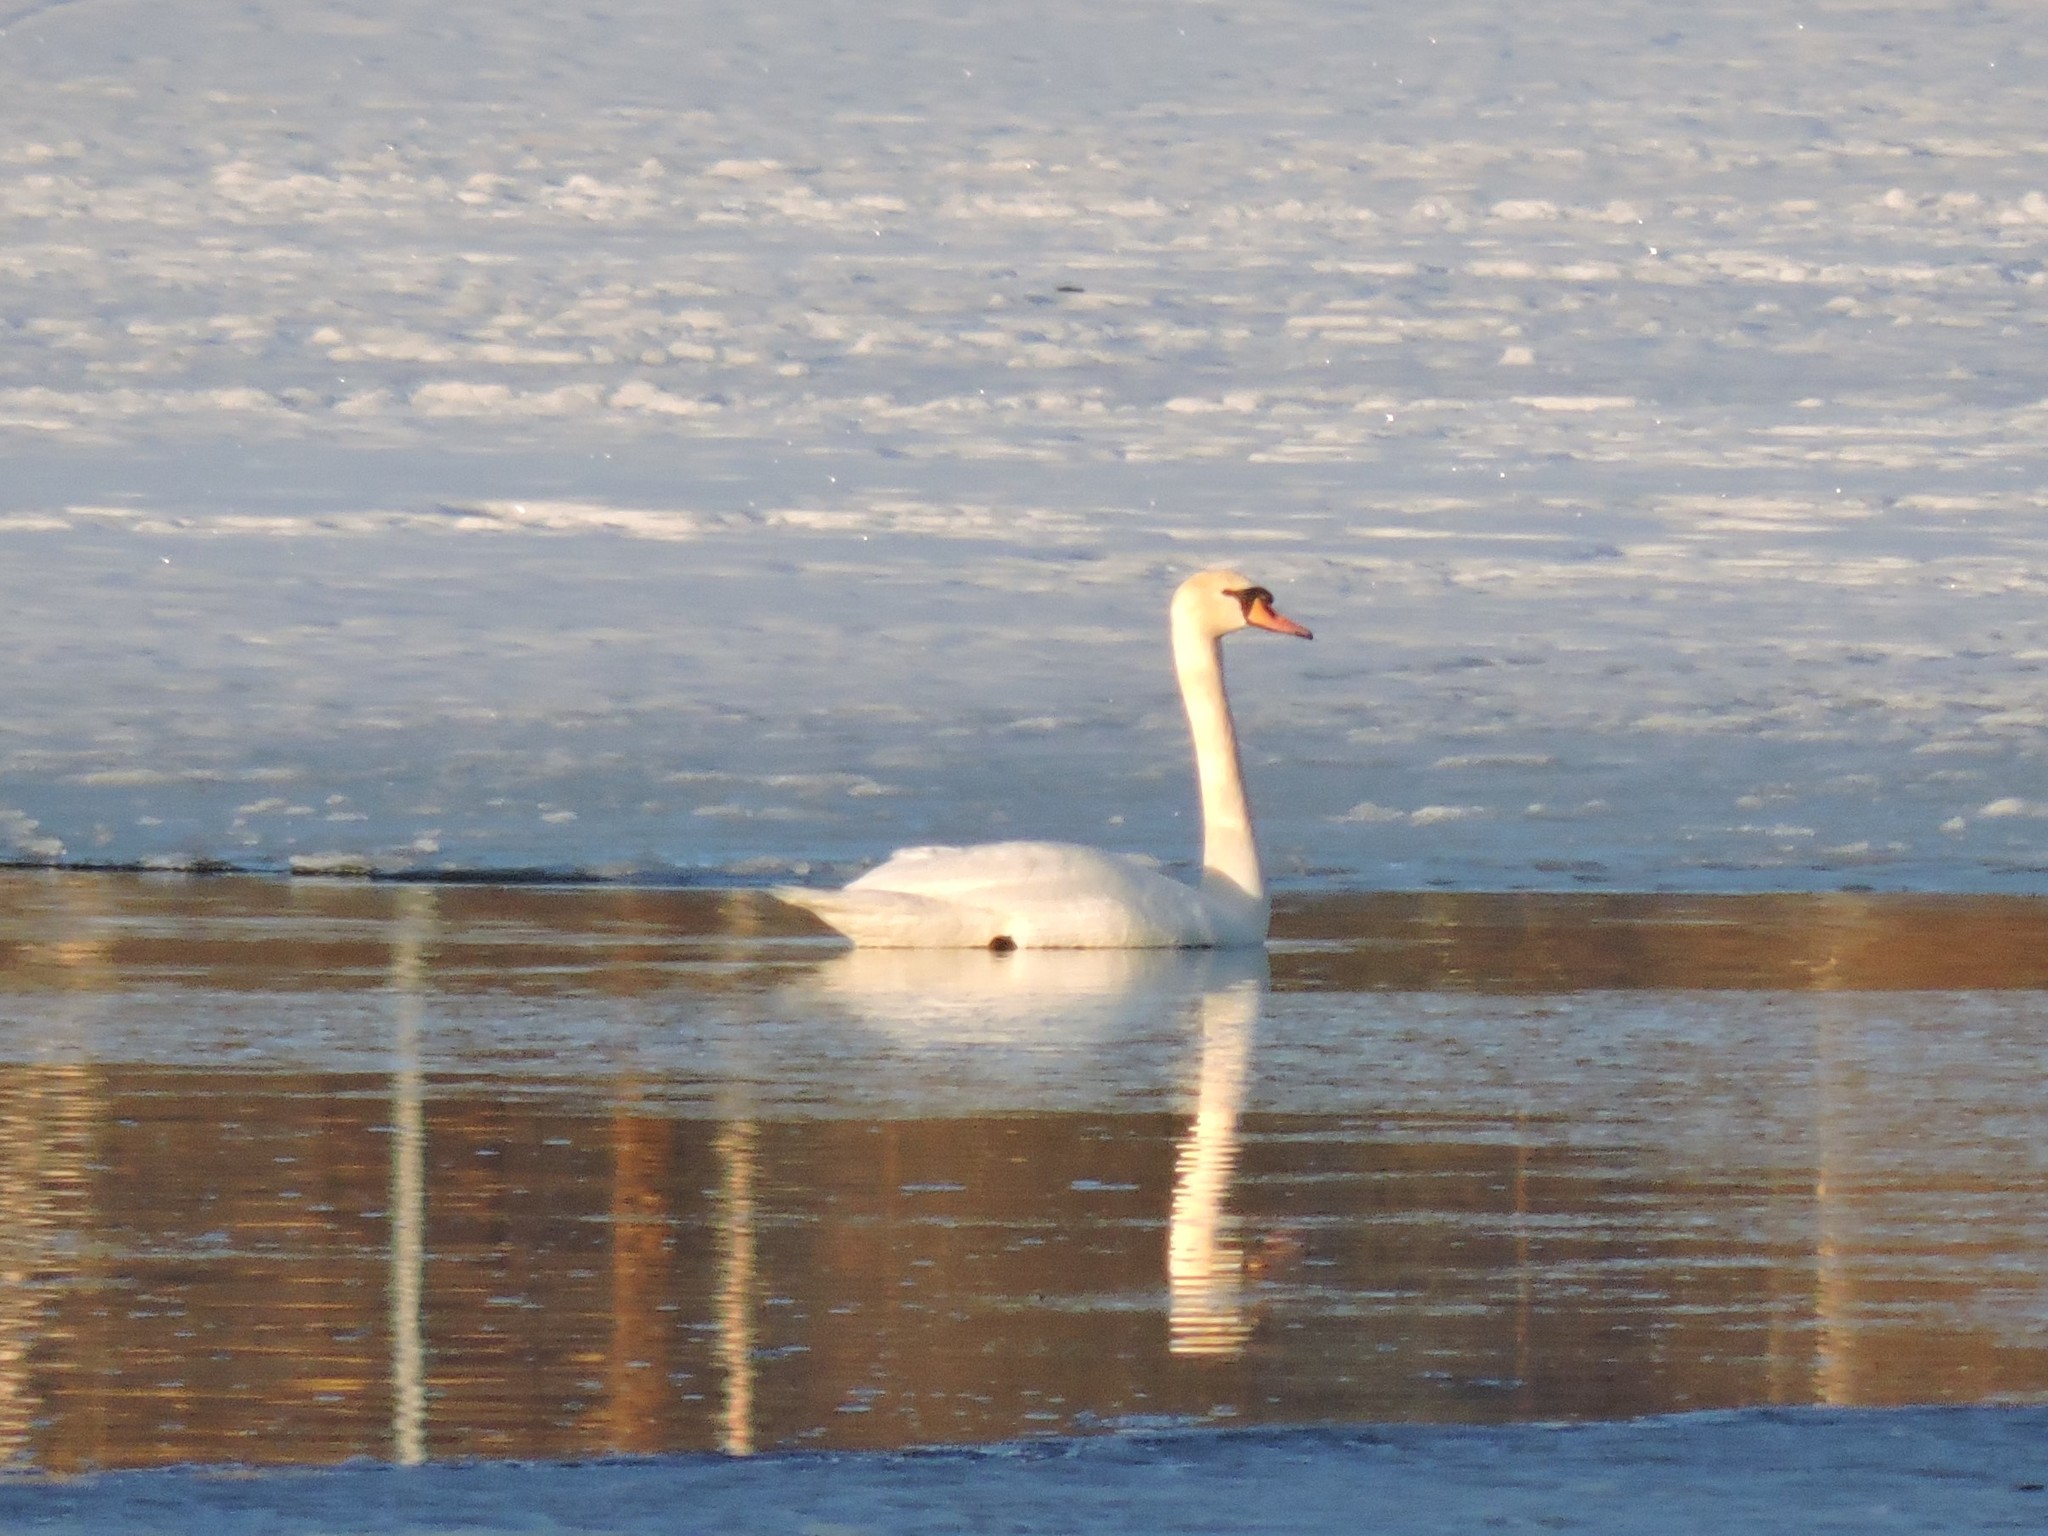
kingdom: Animalia
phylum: Chordata
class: Aves
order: Anseriformes
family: Anatidae
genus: Cygnus
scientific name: Cygnus olor
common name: Mute swan
